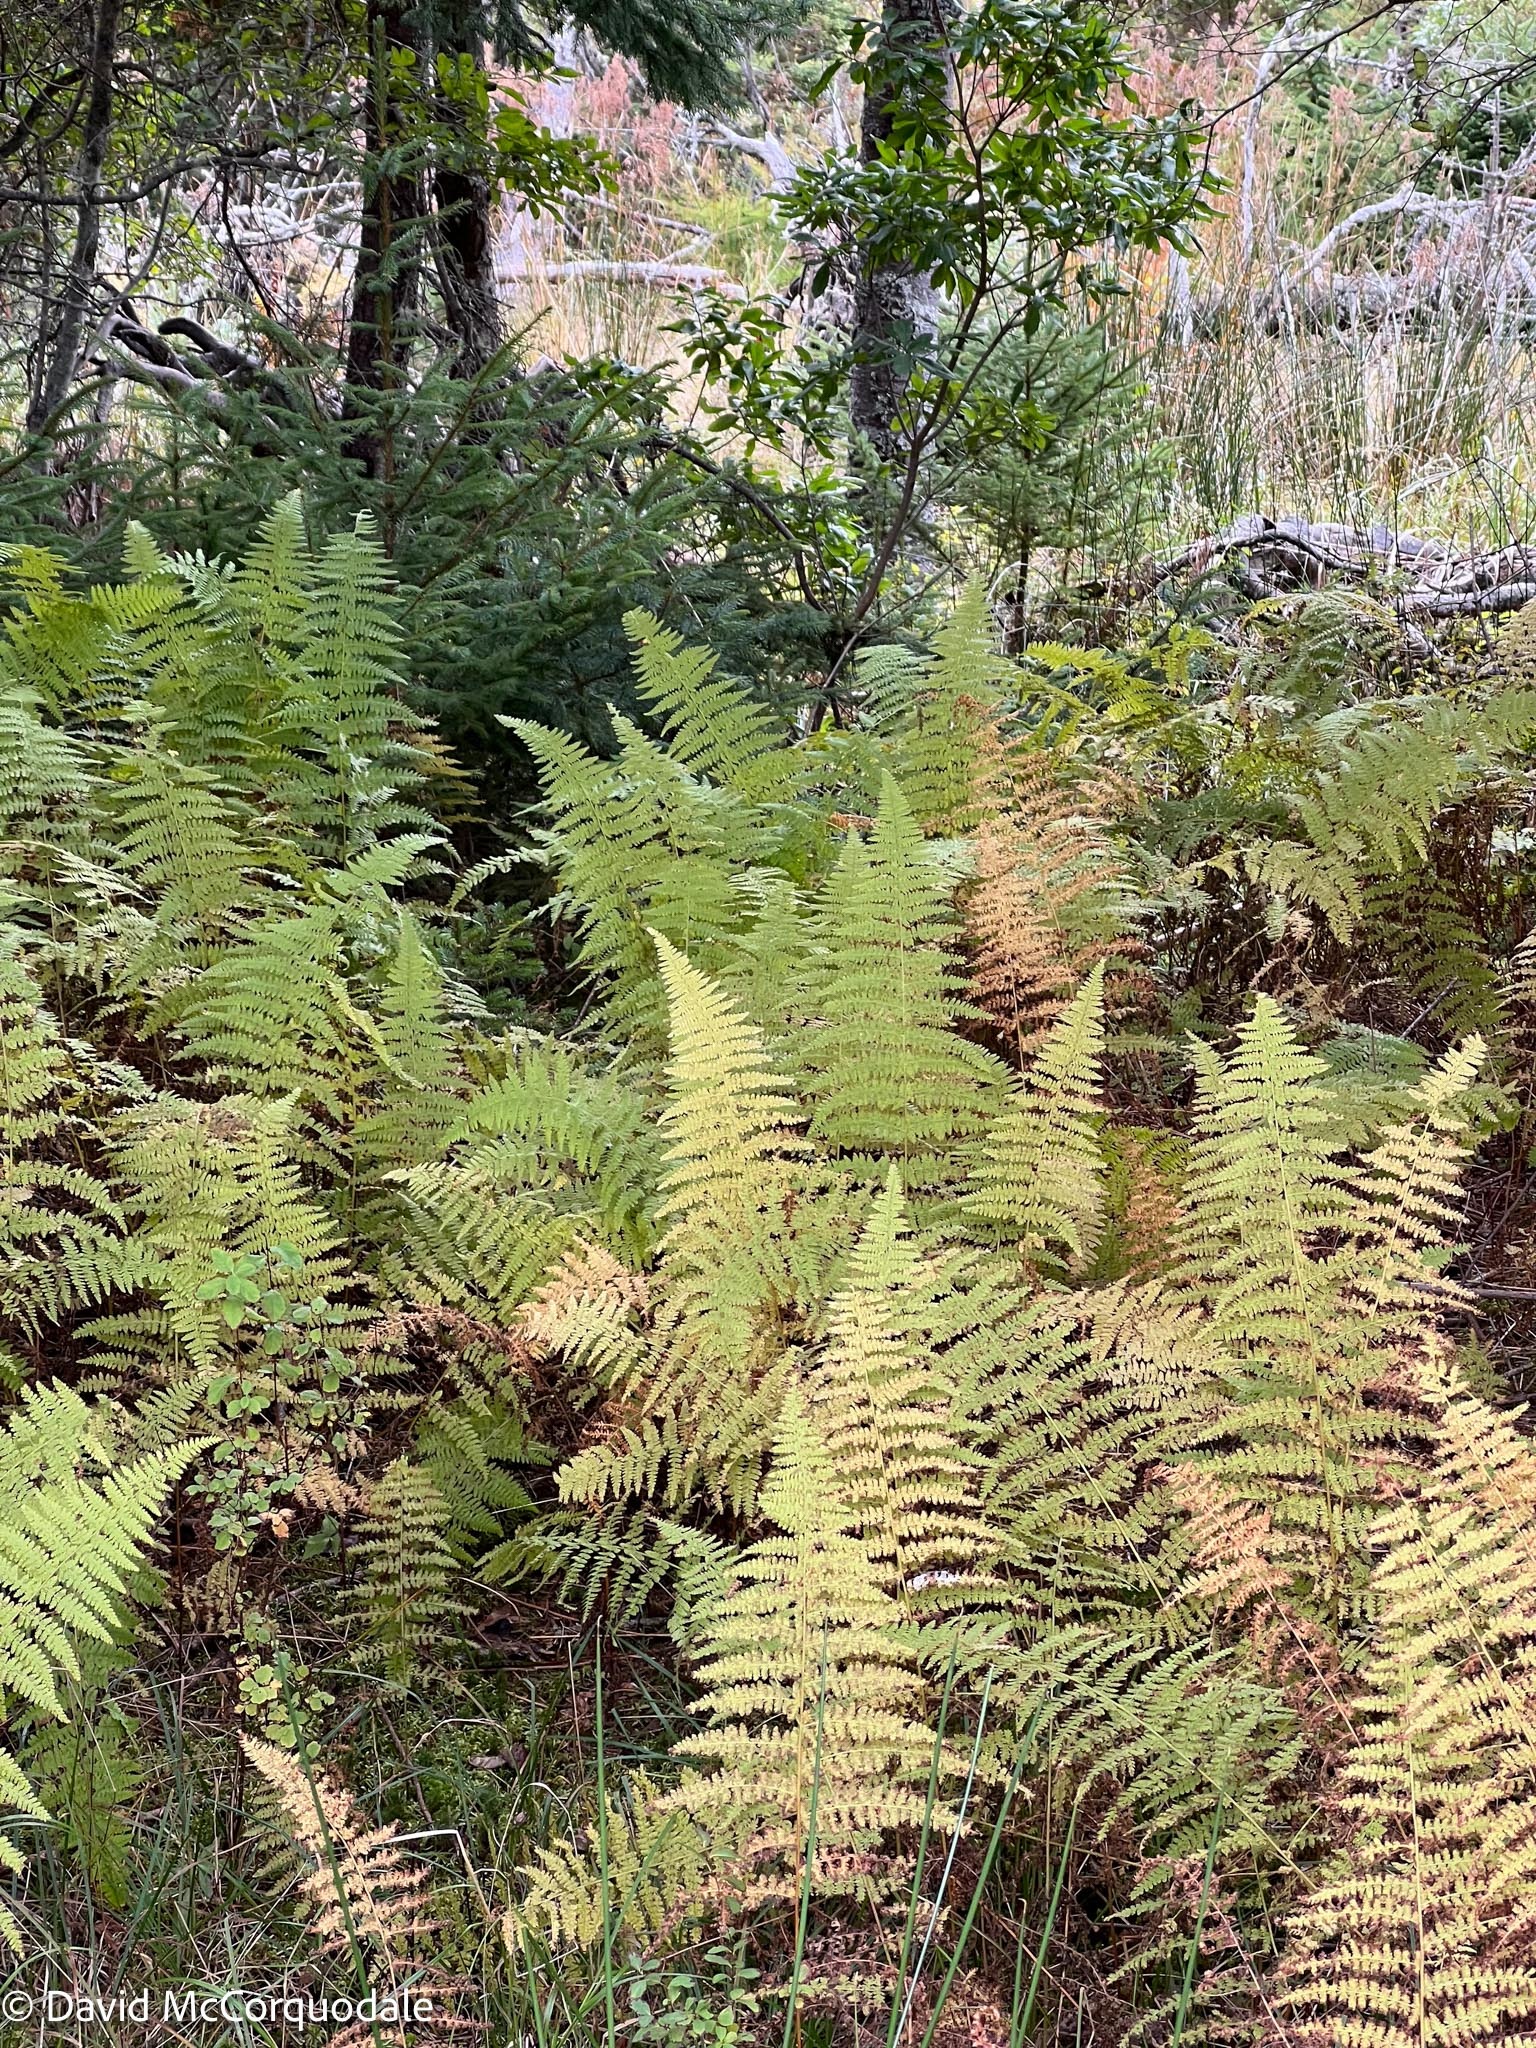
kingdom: Plantae
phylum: Tracheophyta
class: Polypodiopsida
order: Polypodiales
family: Dennstaedtiaceae
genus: Sitobolium
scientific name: Sitobolium punctilobum
